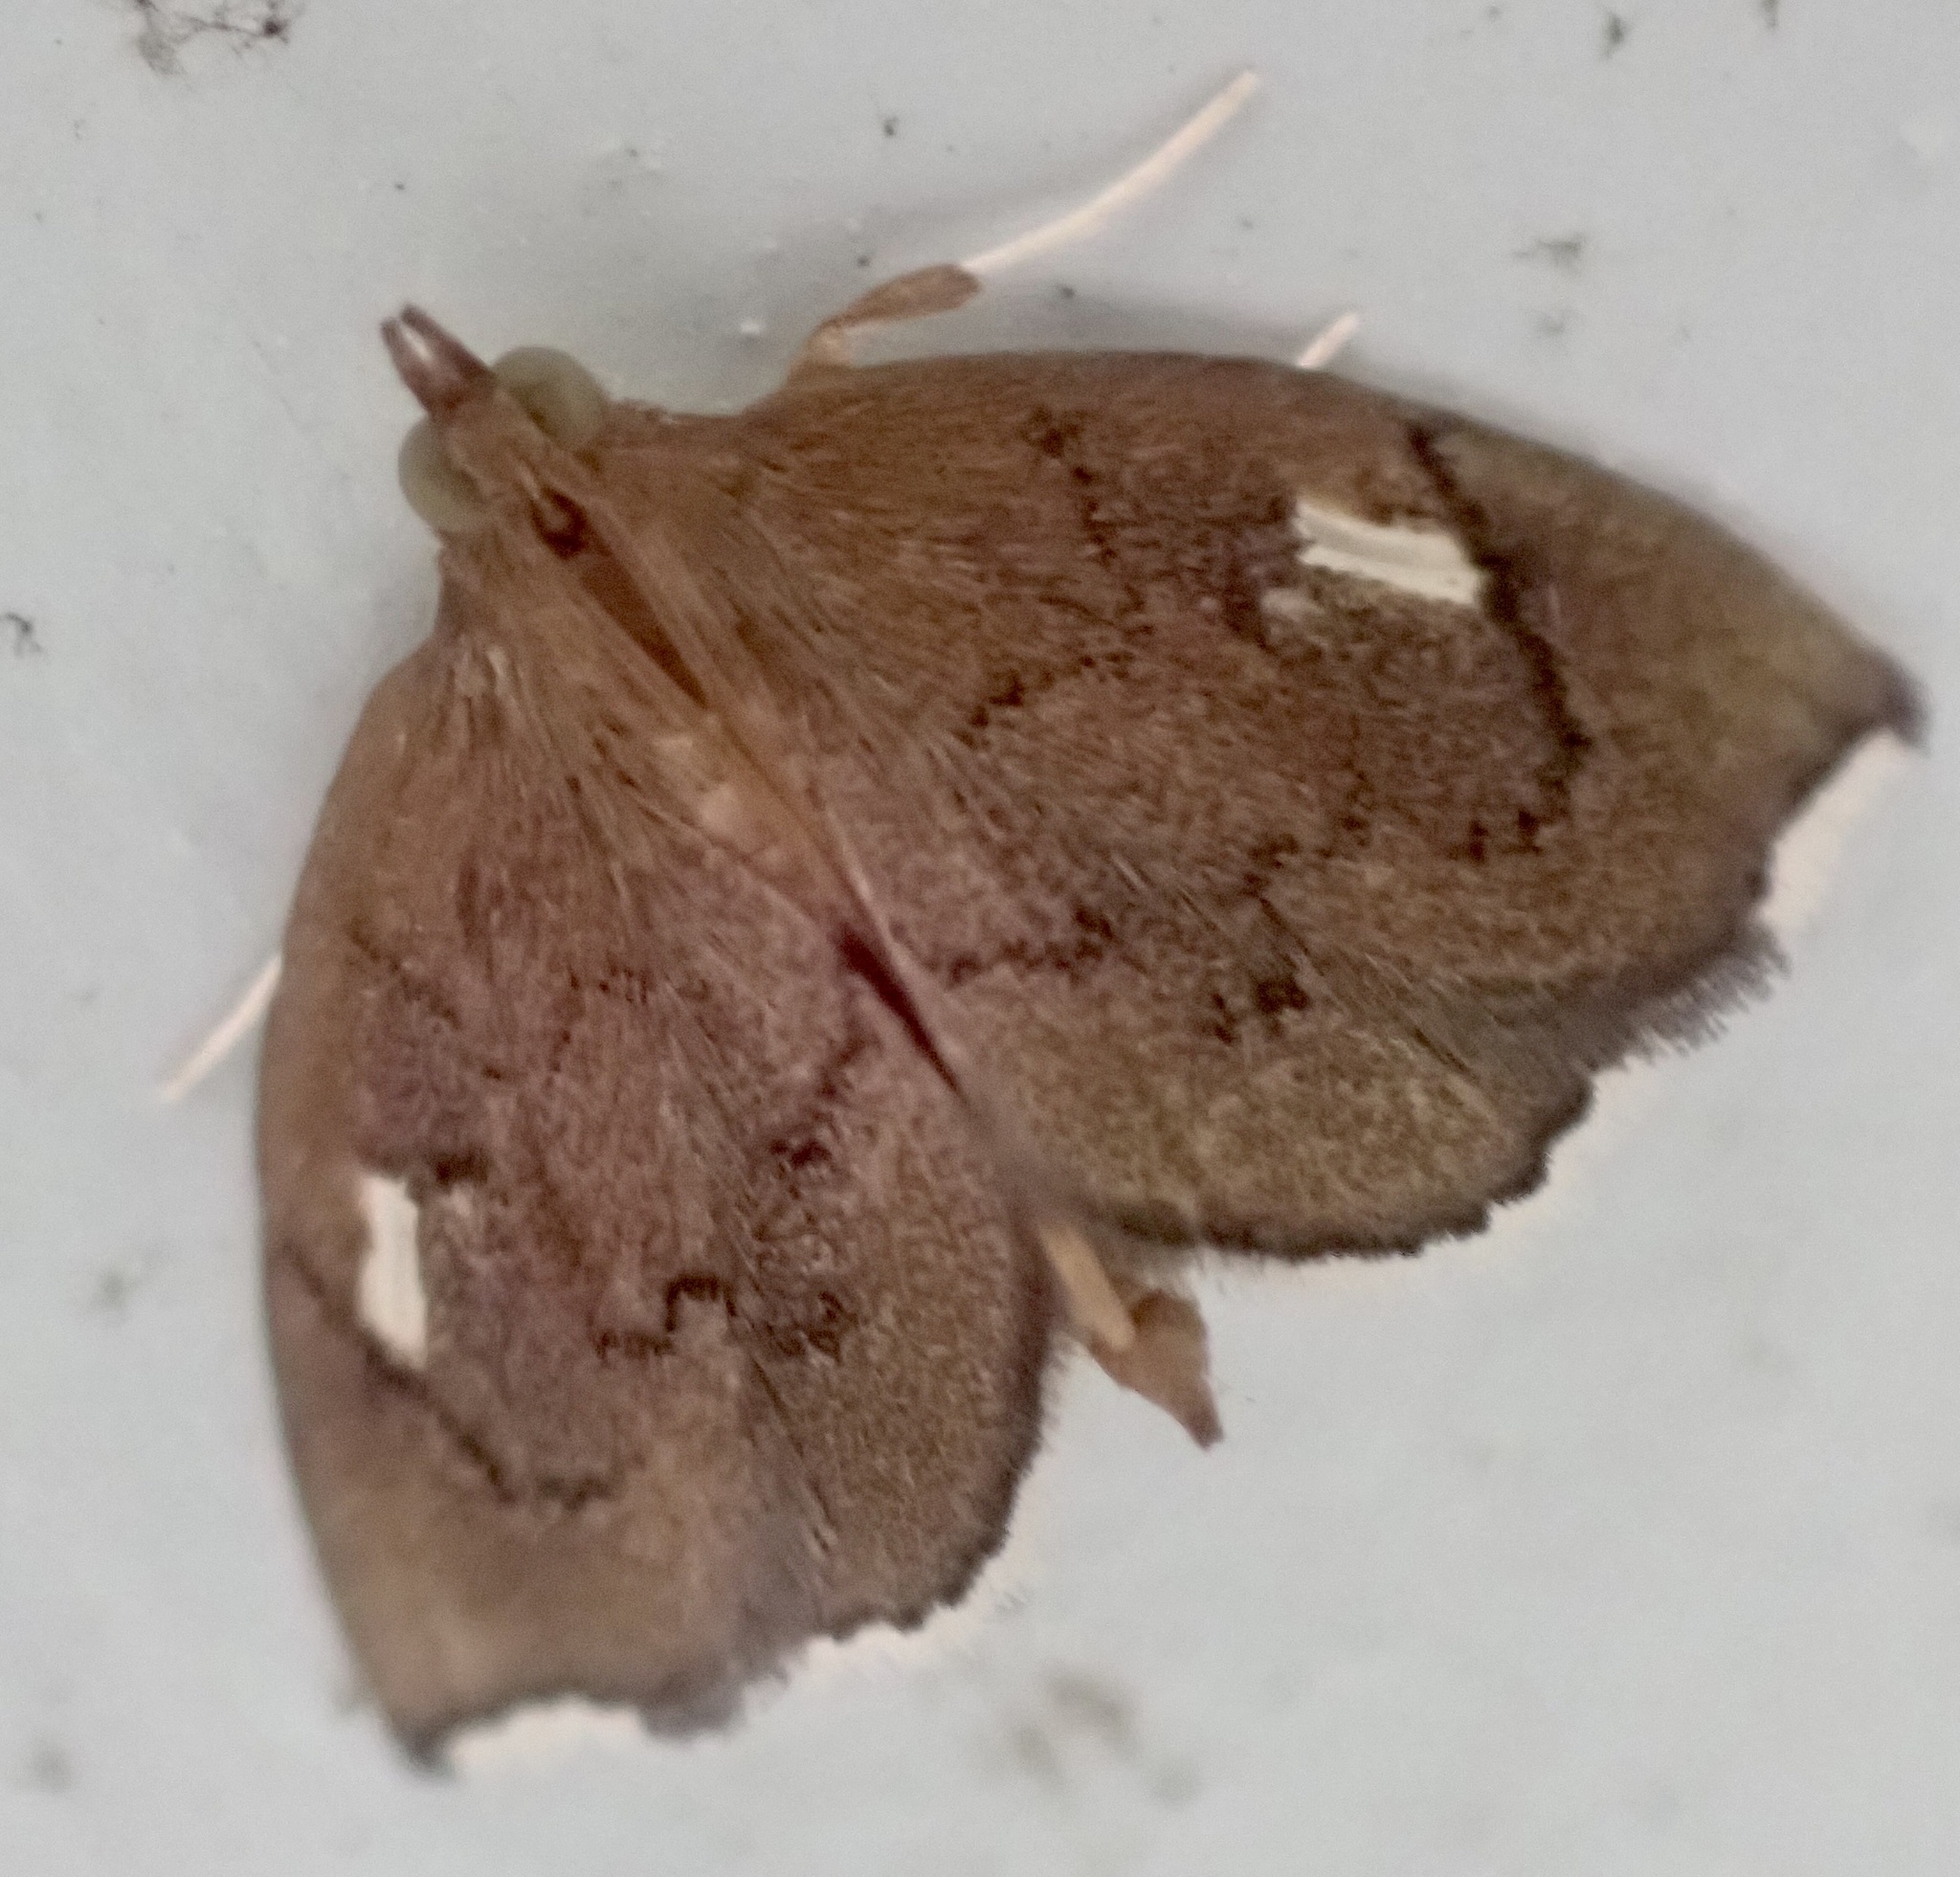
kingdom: Animalia
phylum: Arthropoda
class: Insecta
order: Lepidoptera
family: Crambidae
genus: Perispasta
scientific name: Perispasta caeculalis
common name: Titian peale's moth
